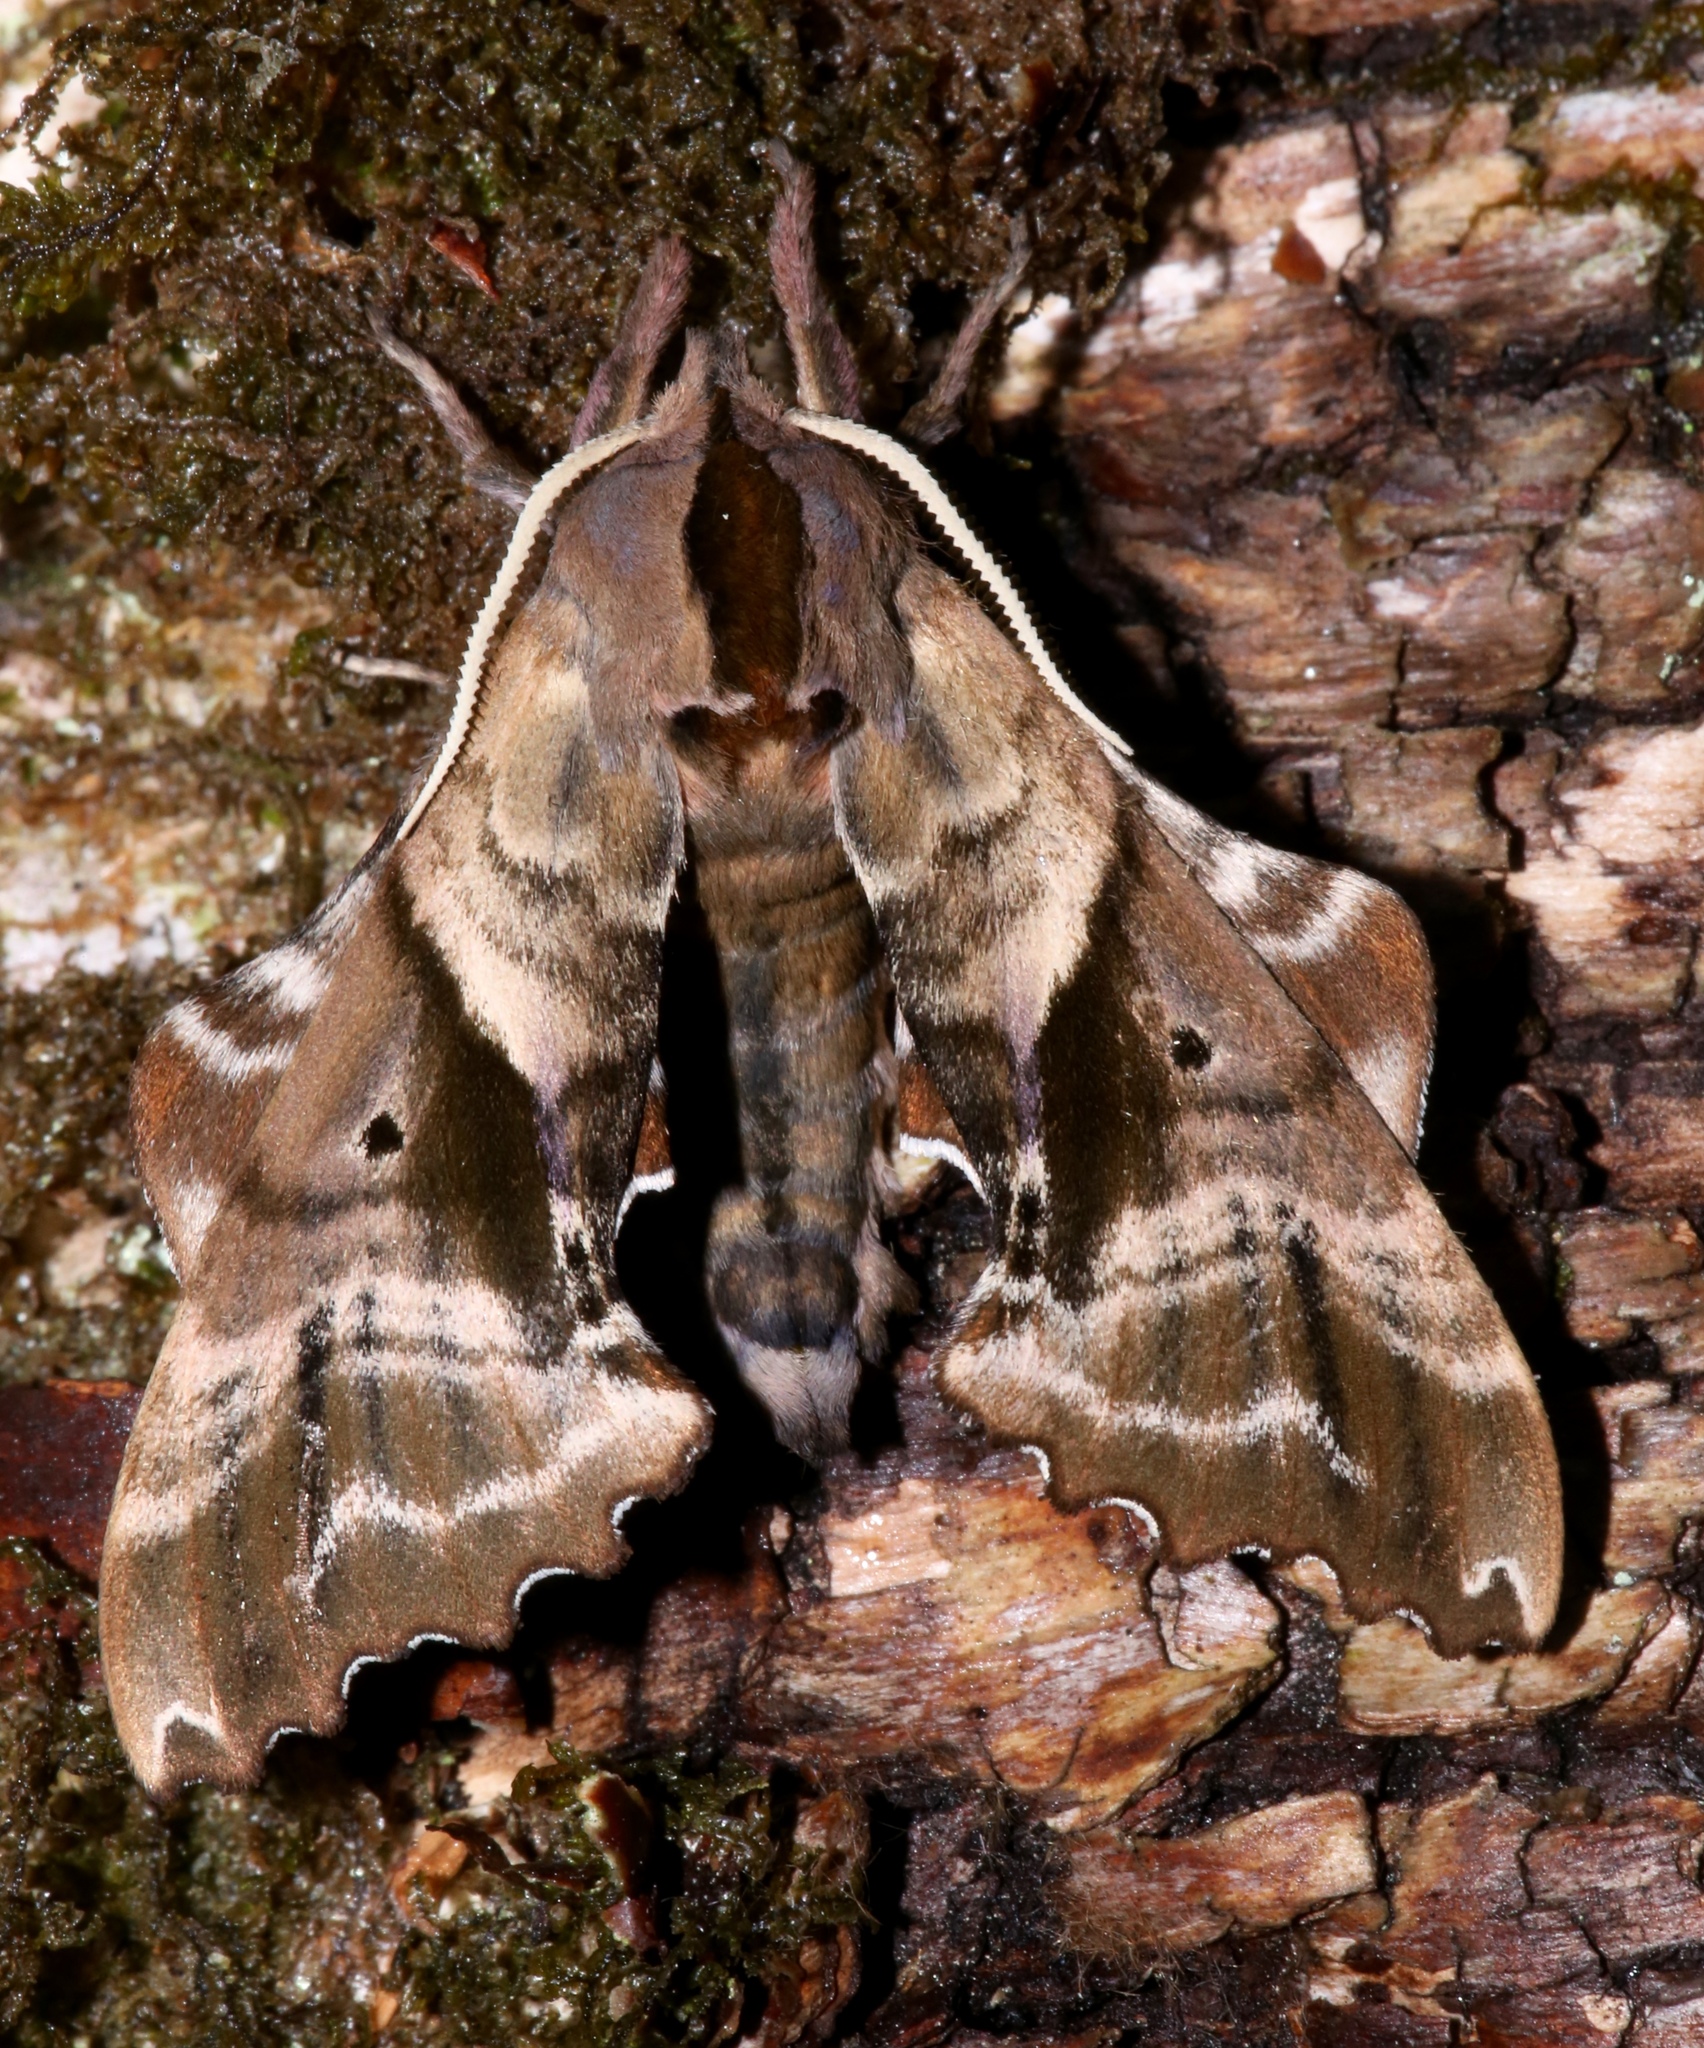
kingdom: Animalia
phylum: Arthropoda
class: Insecta
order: Lepidoptera
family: Sphingidae
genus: Paonias
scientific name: Paonias excaecata
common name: Blind-eyed sphinx
